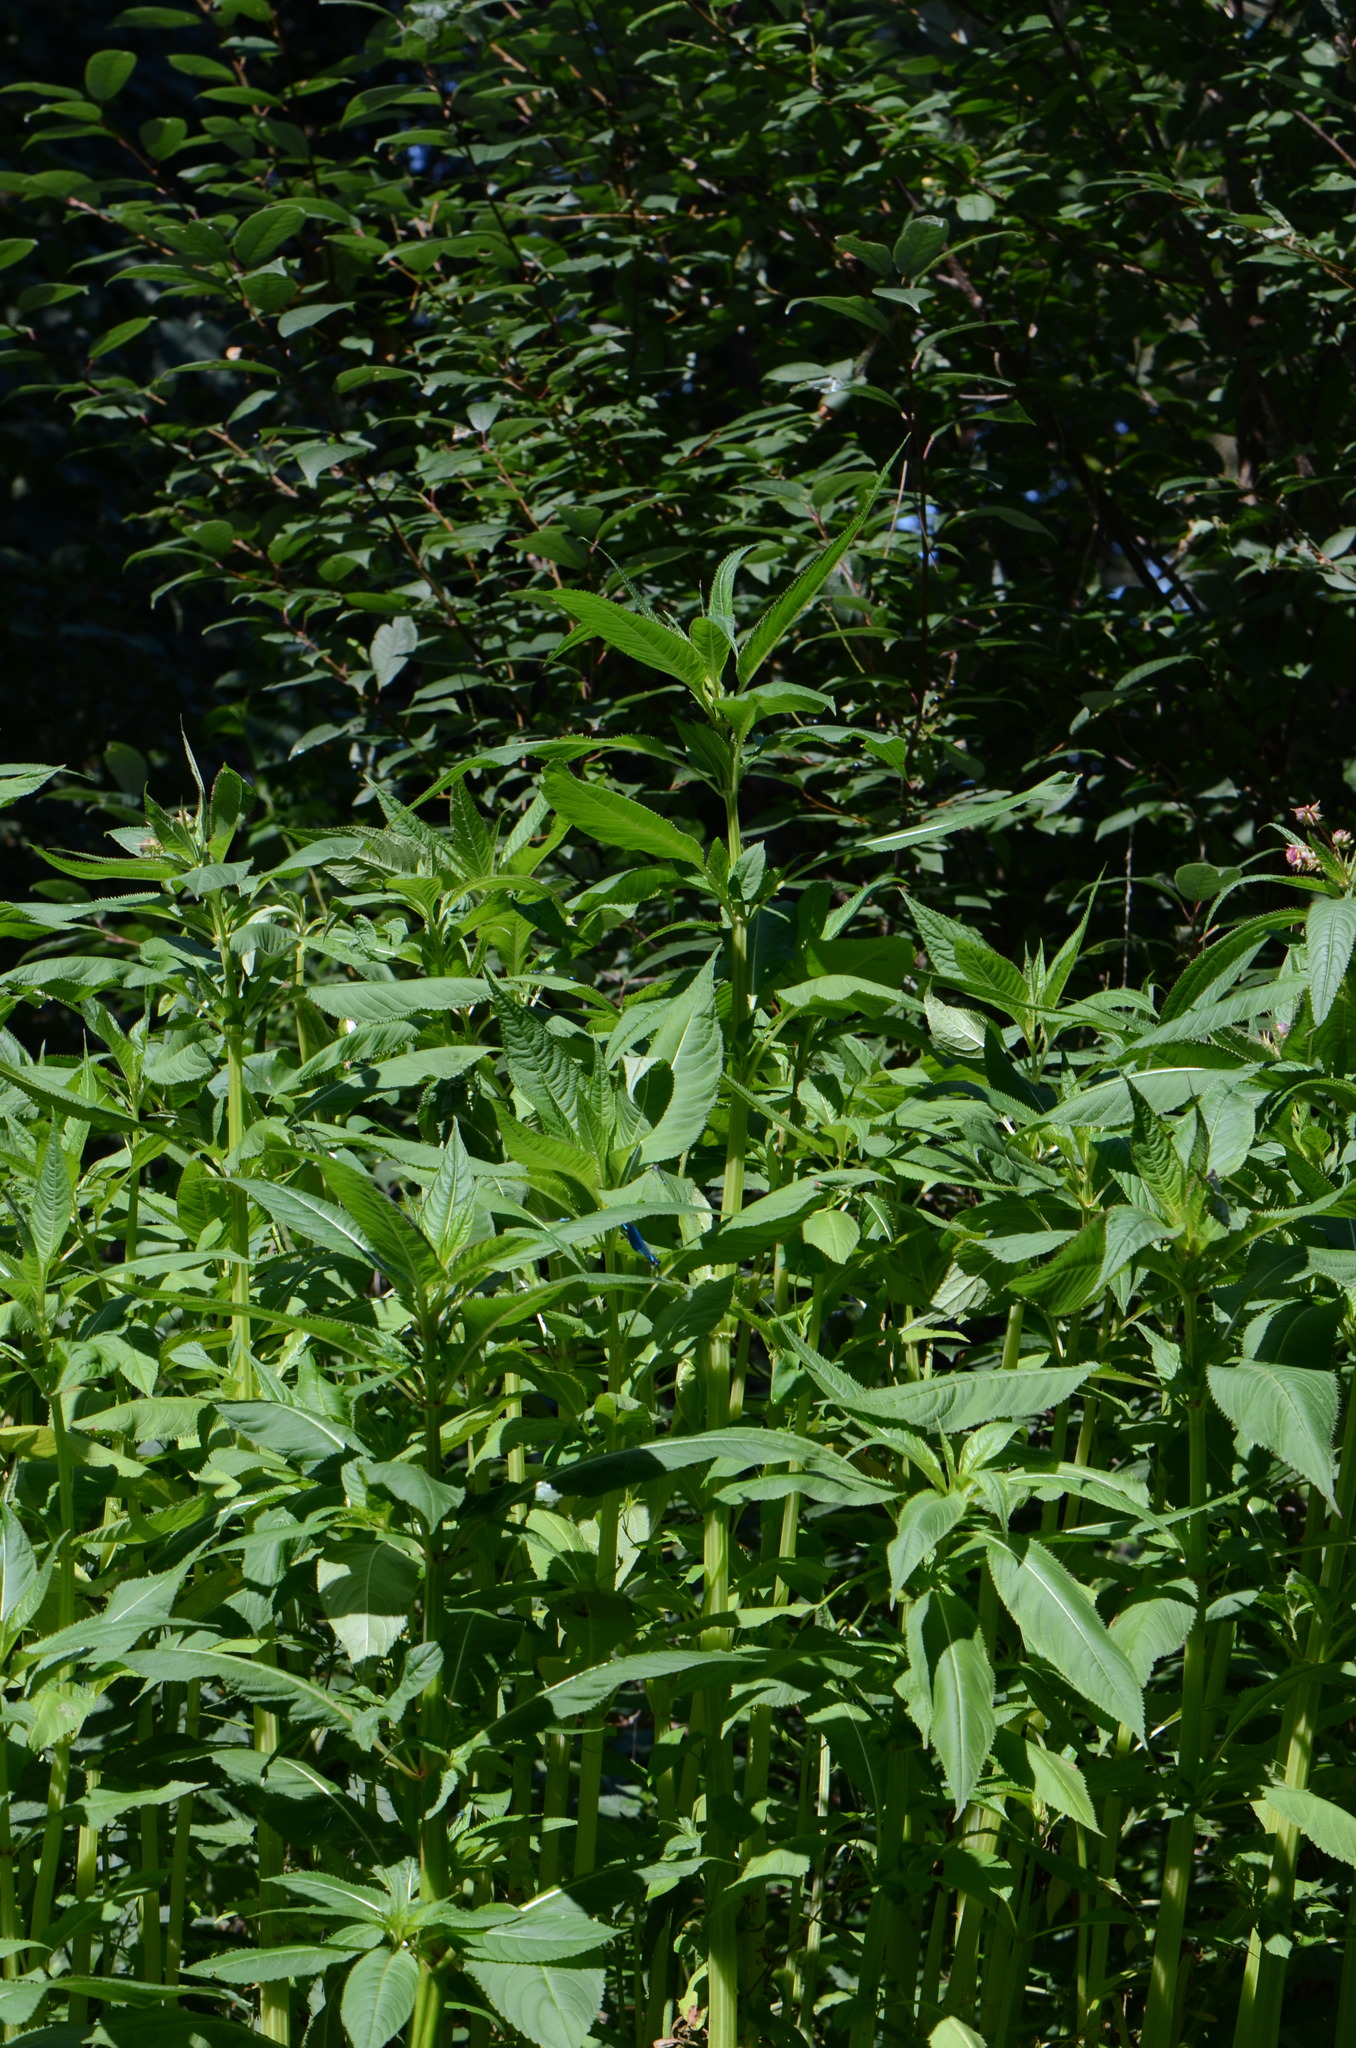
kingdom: Plantae
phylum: Tracheophyta
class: Magnoliopsida
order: Ericales
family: Balsaminaceae
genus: Impatiens
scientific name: Impatiens glandulifera
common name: Himalayan balsam
